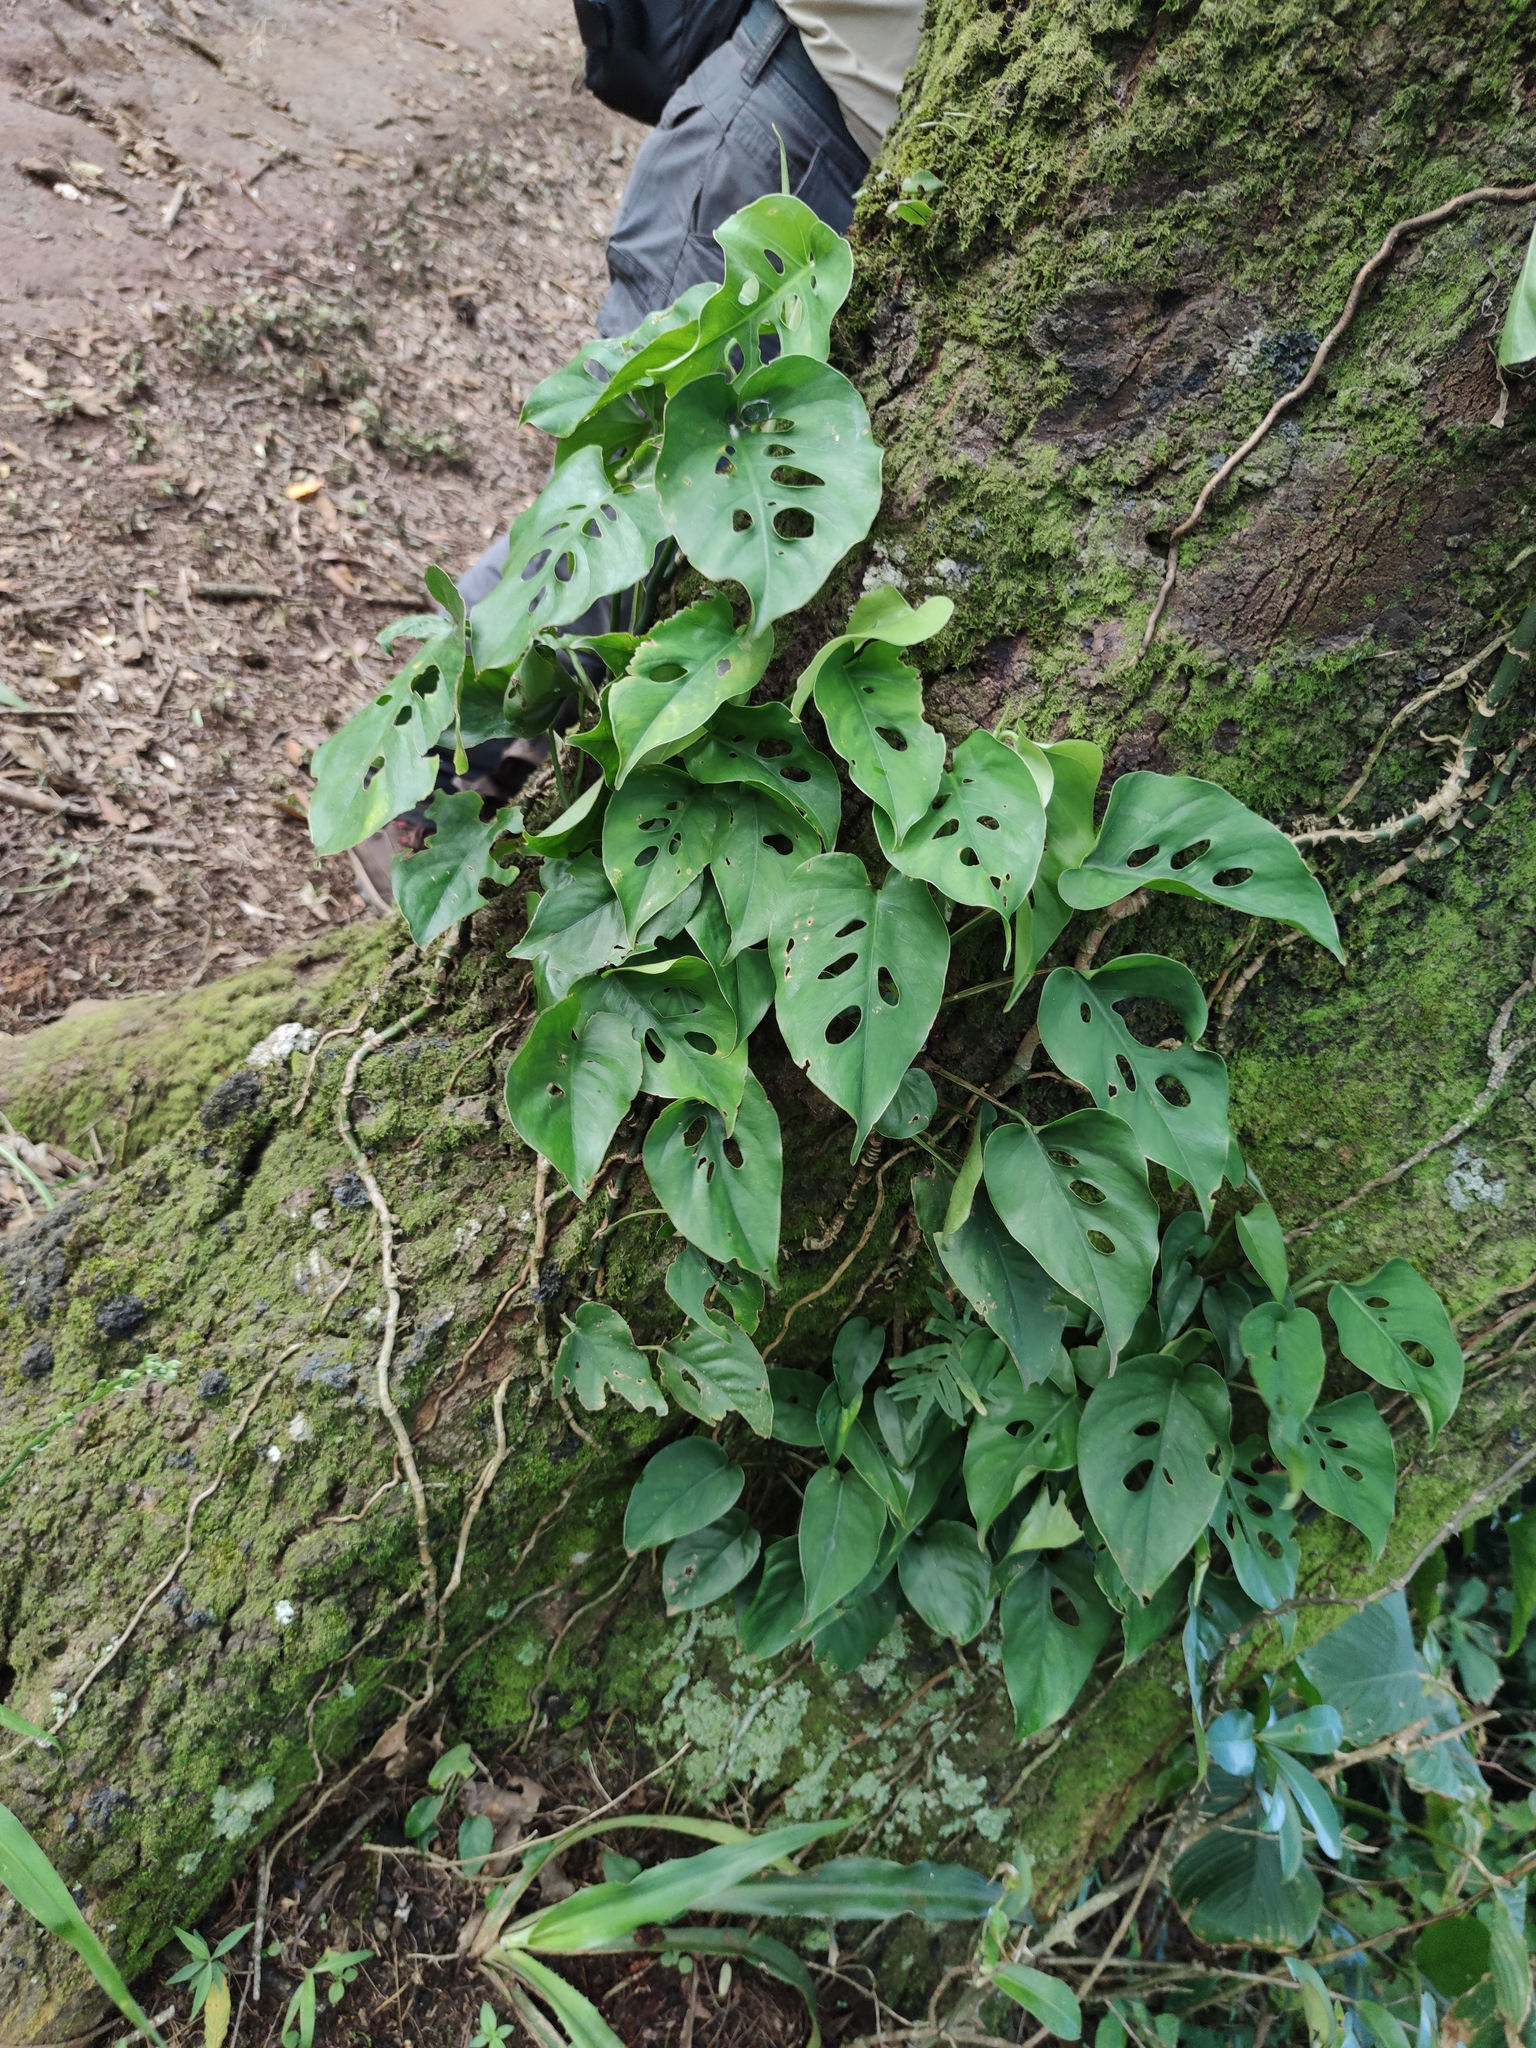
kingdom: Plantae
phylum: Tracheophyta
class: Liliopsida
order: Alismatales
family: Araceae
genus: Monstera
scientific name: Monstera siltepecana
